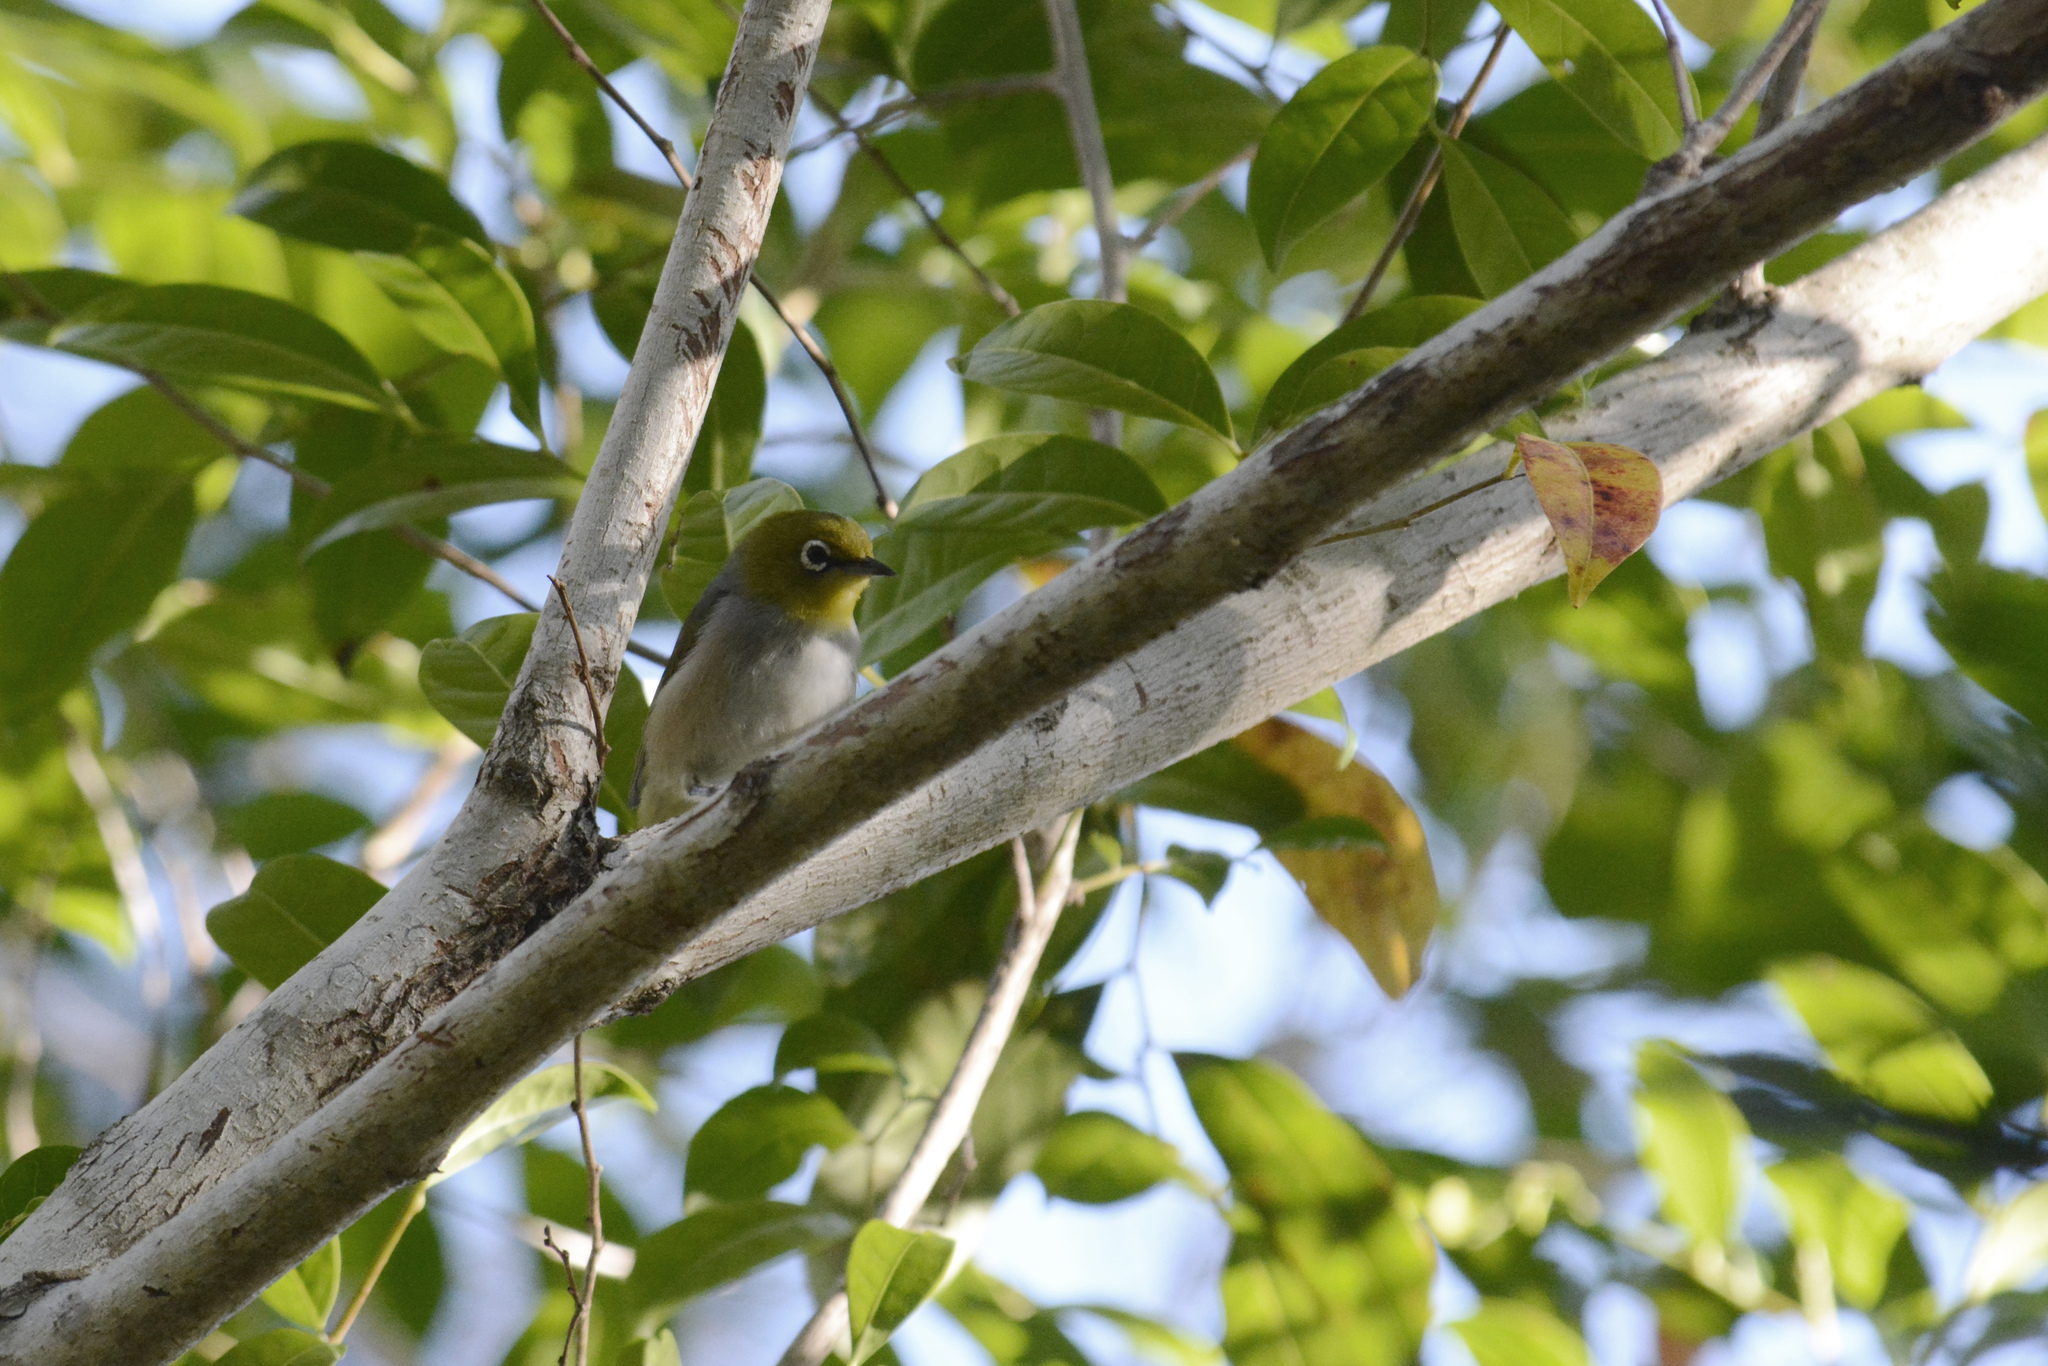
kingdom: Animalia
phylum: Chordata
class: Aves
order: Passeriformes
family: Zosteropidae
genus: Zosterops
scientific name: Zosterops lateralis
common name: Silvereye
